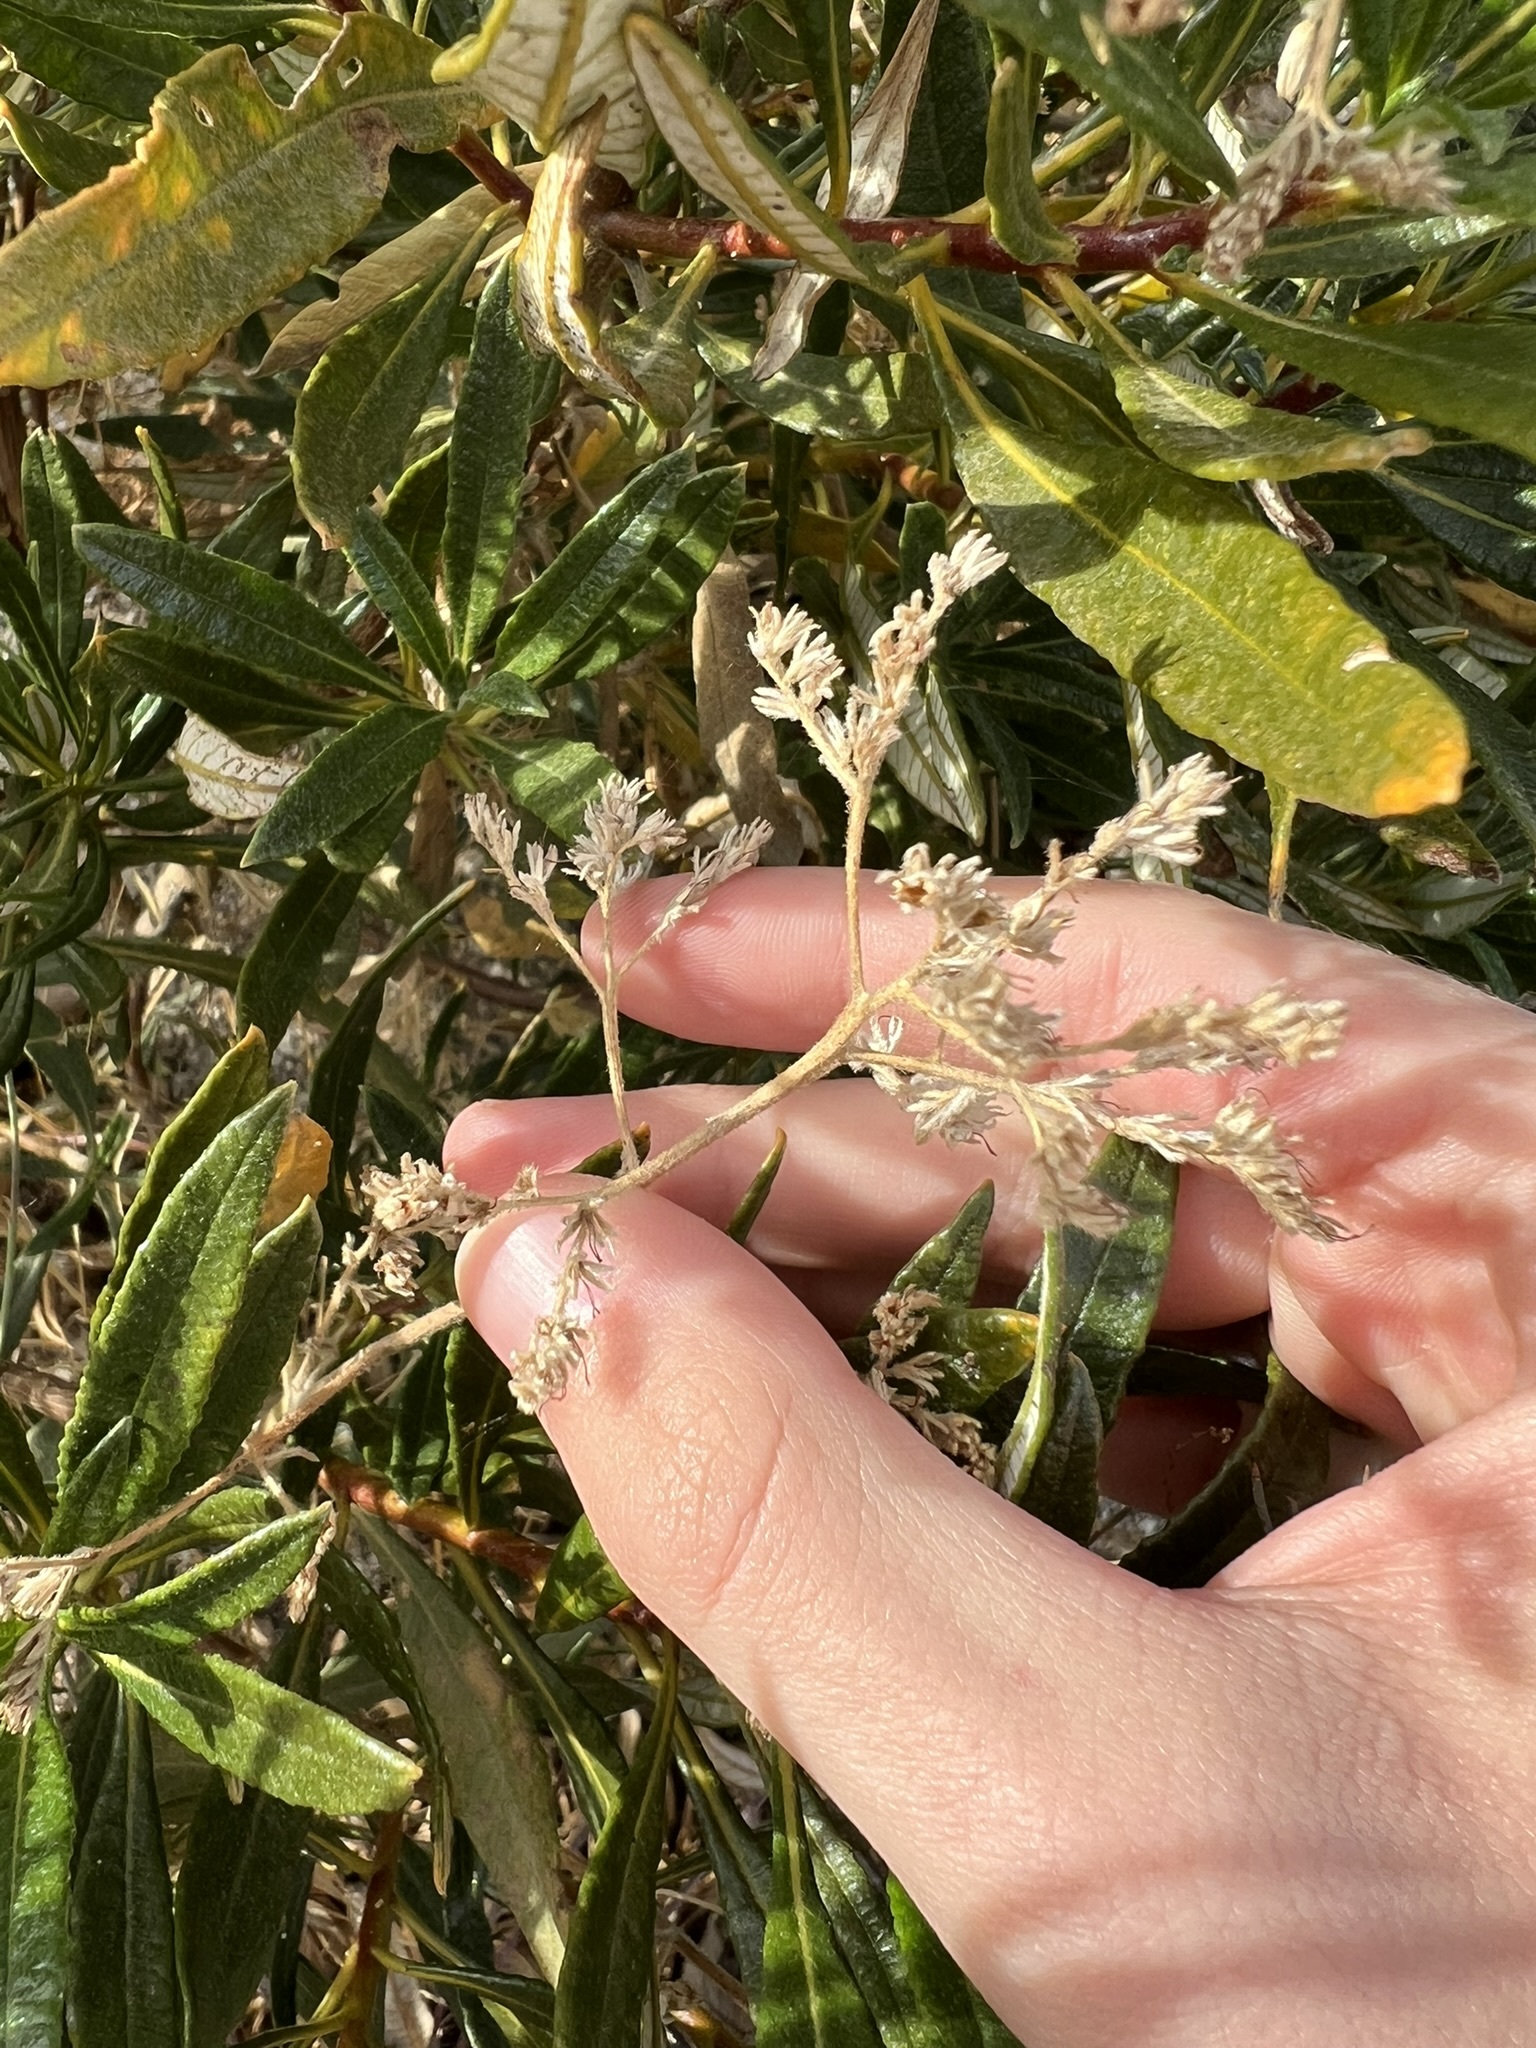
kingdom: Plantae
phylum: Tracheophyta
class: Magnoliopsida
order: Boraginales
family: Namaceae
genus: Eriodictyon
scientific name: Eriodictyon trichocalyx
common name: Hairy yerba-santa
